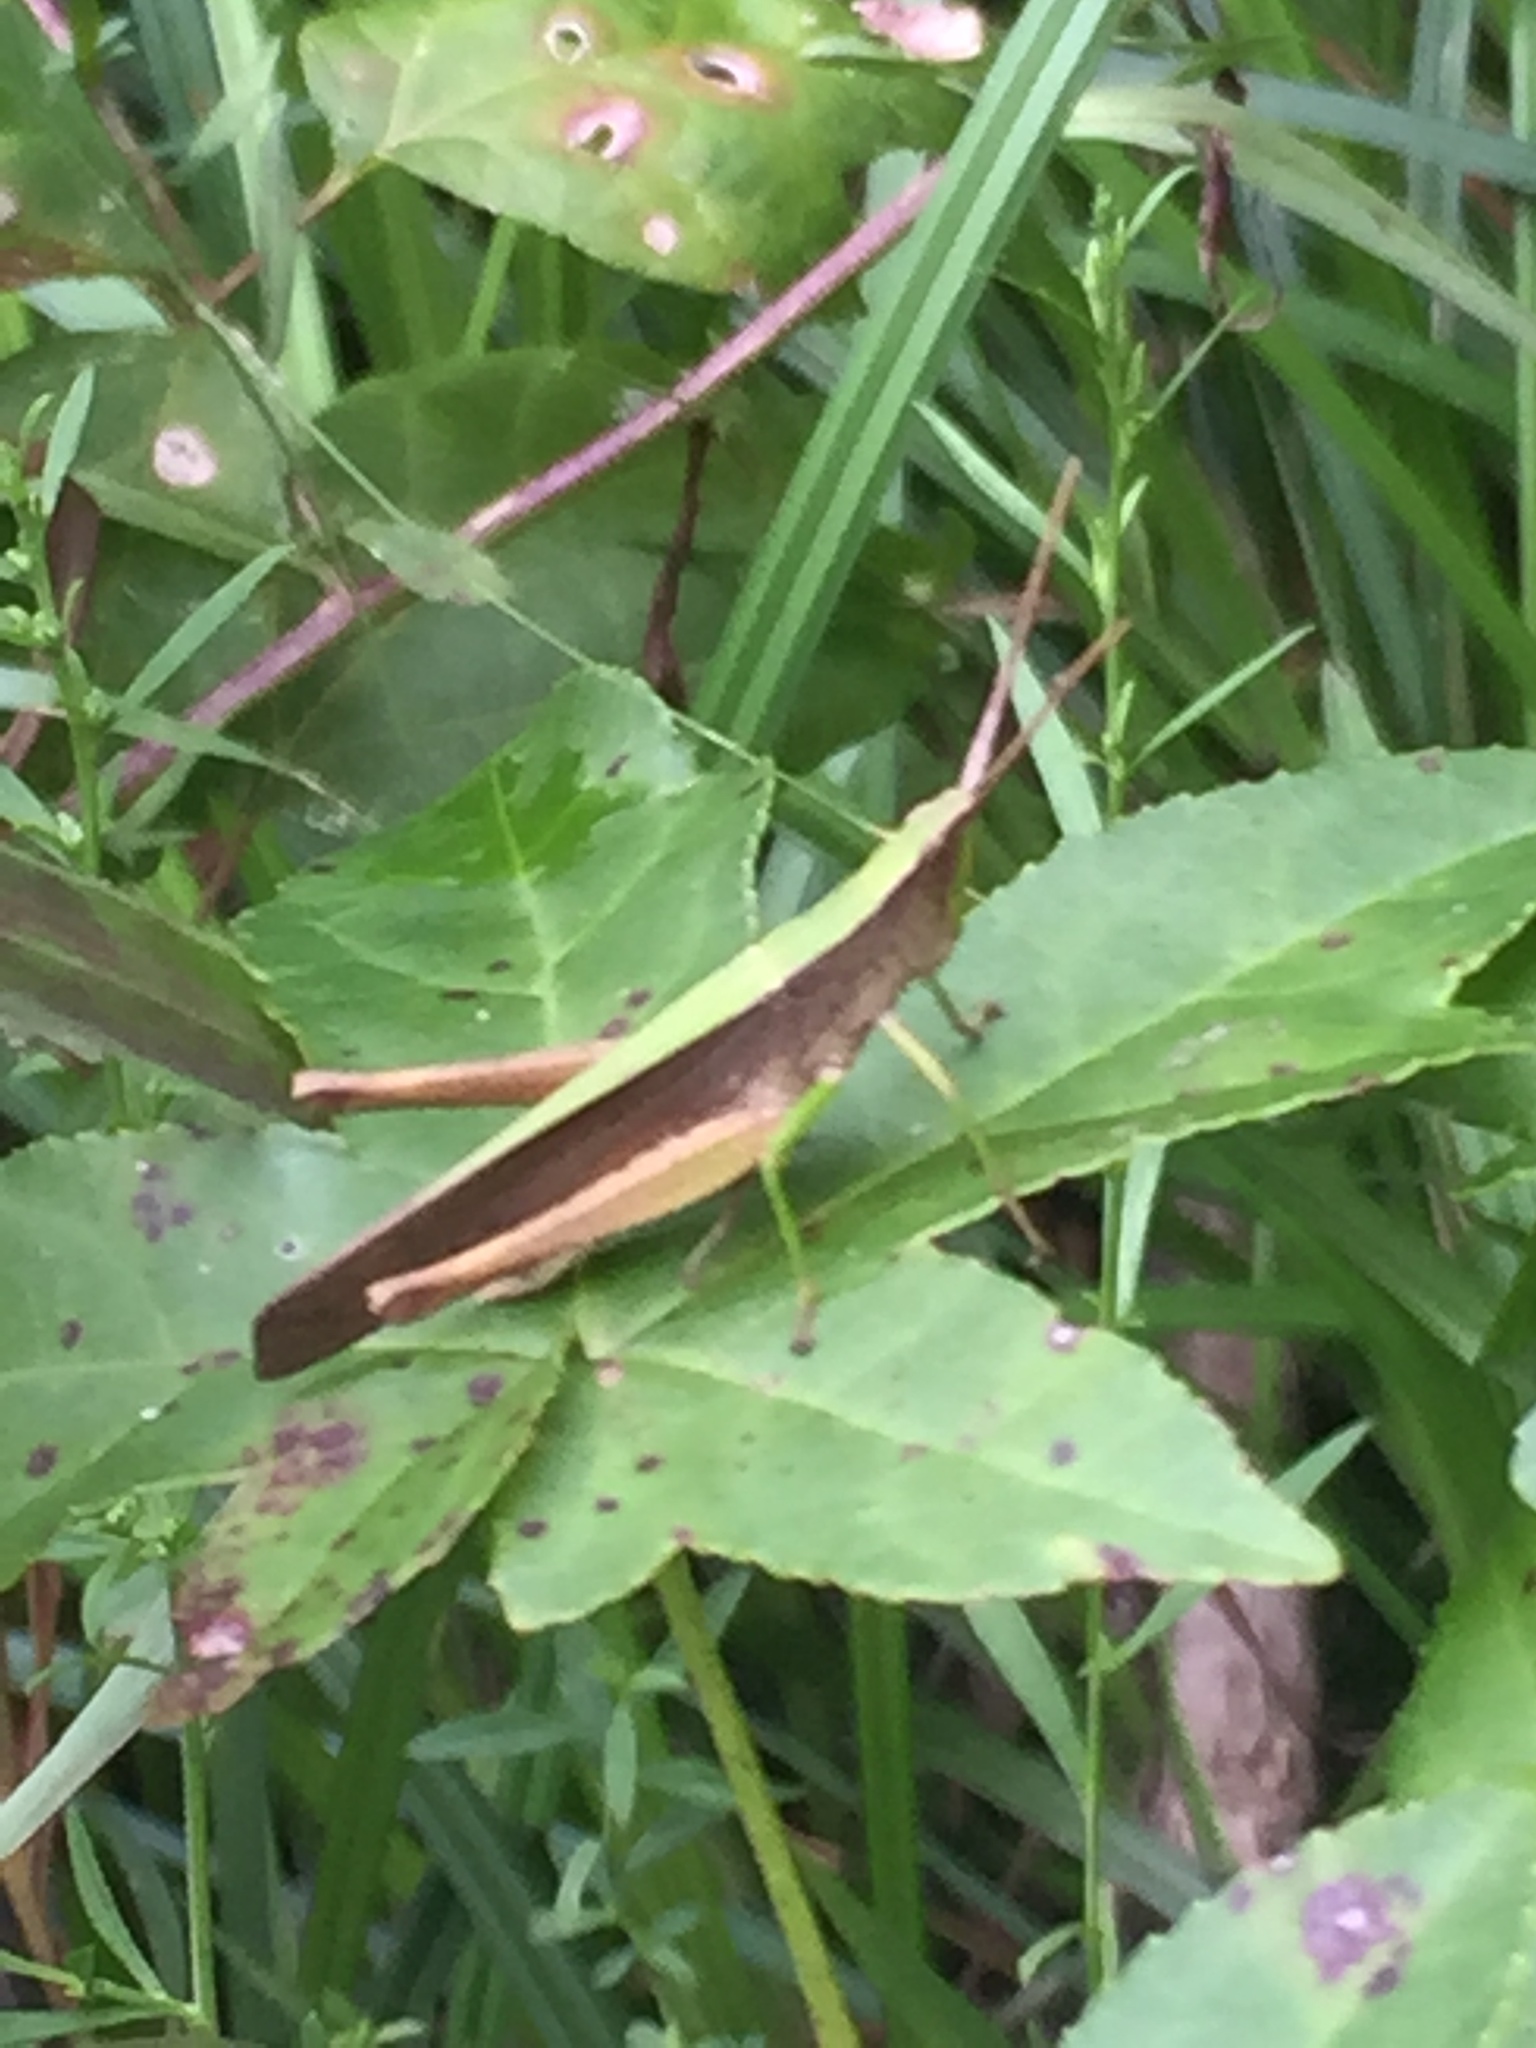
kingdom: Animalia
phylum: Arthropoda
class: Insecta
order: Orthoptera
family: Acrididae
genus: Metaleptea
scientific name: Metaleptea brevicornis
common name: Clipped-wing grasshopper
